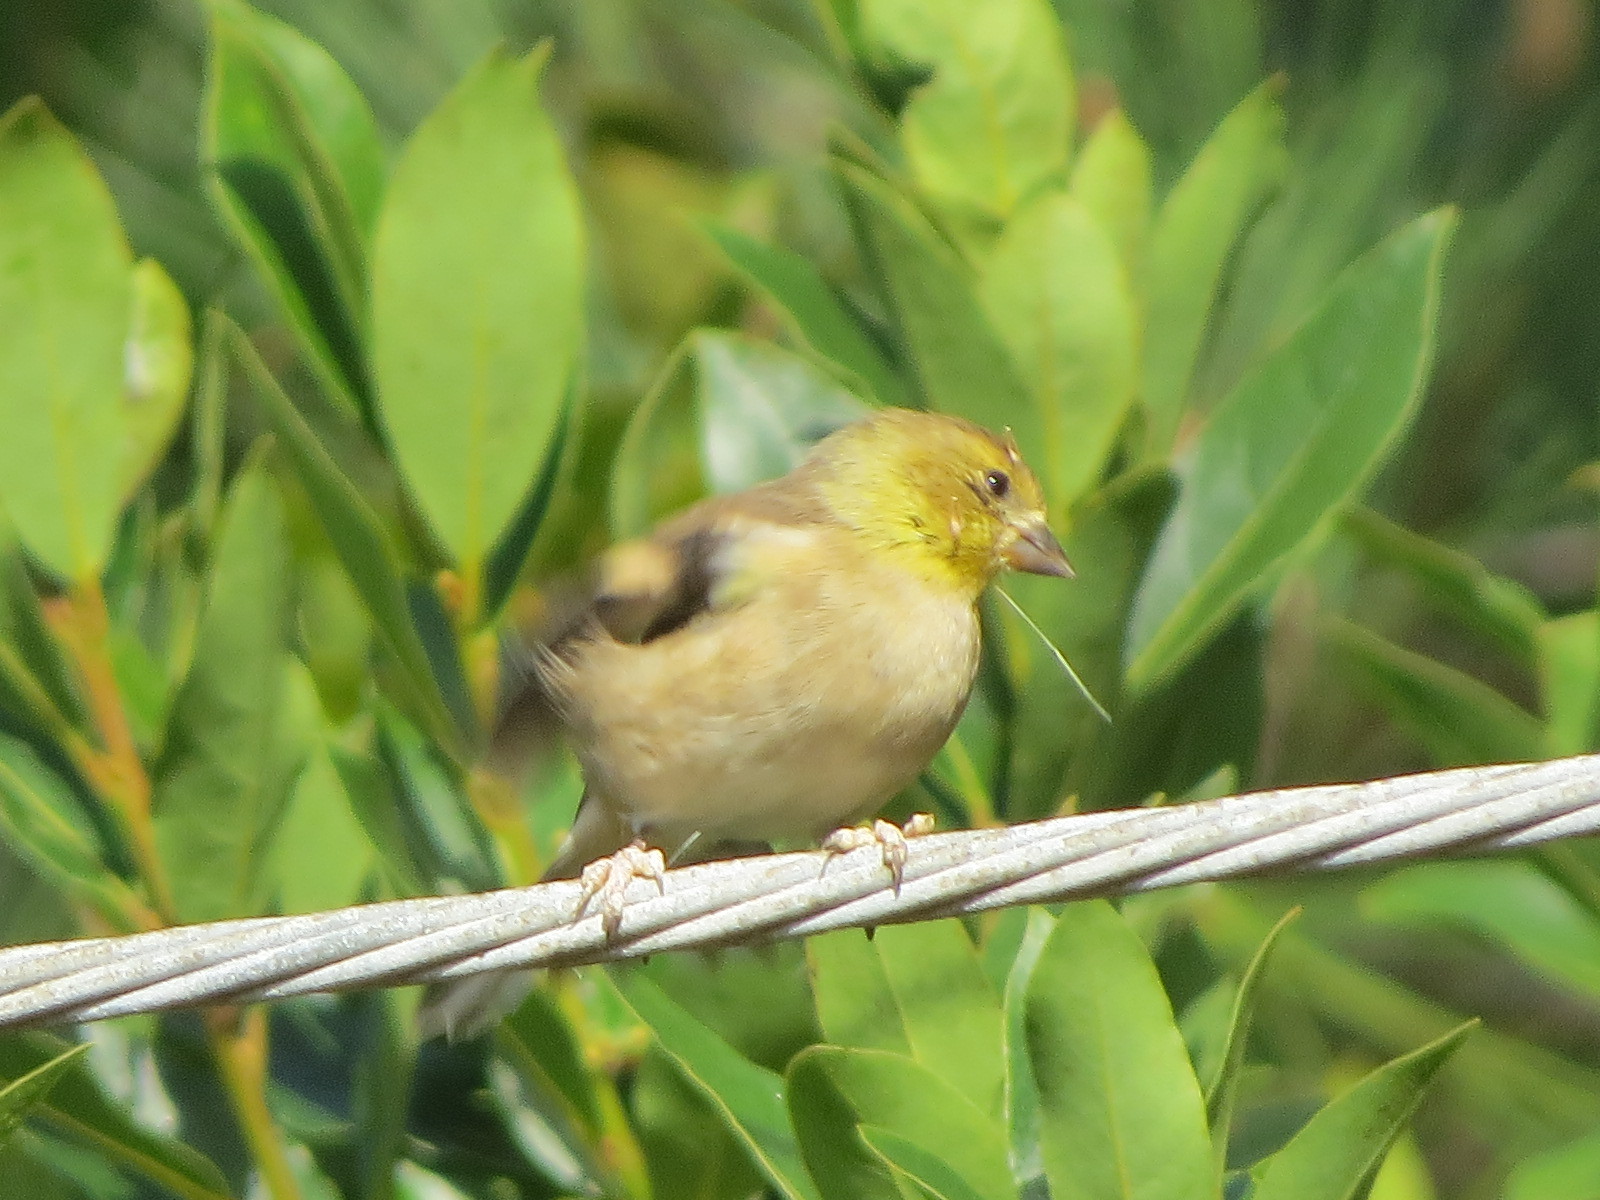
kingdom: Animalia
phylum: Chordata
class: Aves
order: Passeriformes
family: Fringillidae
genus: Spinus
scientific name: Spinus tristis
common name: American goldfinch
